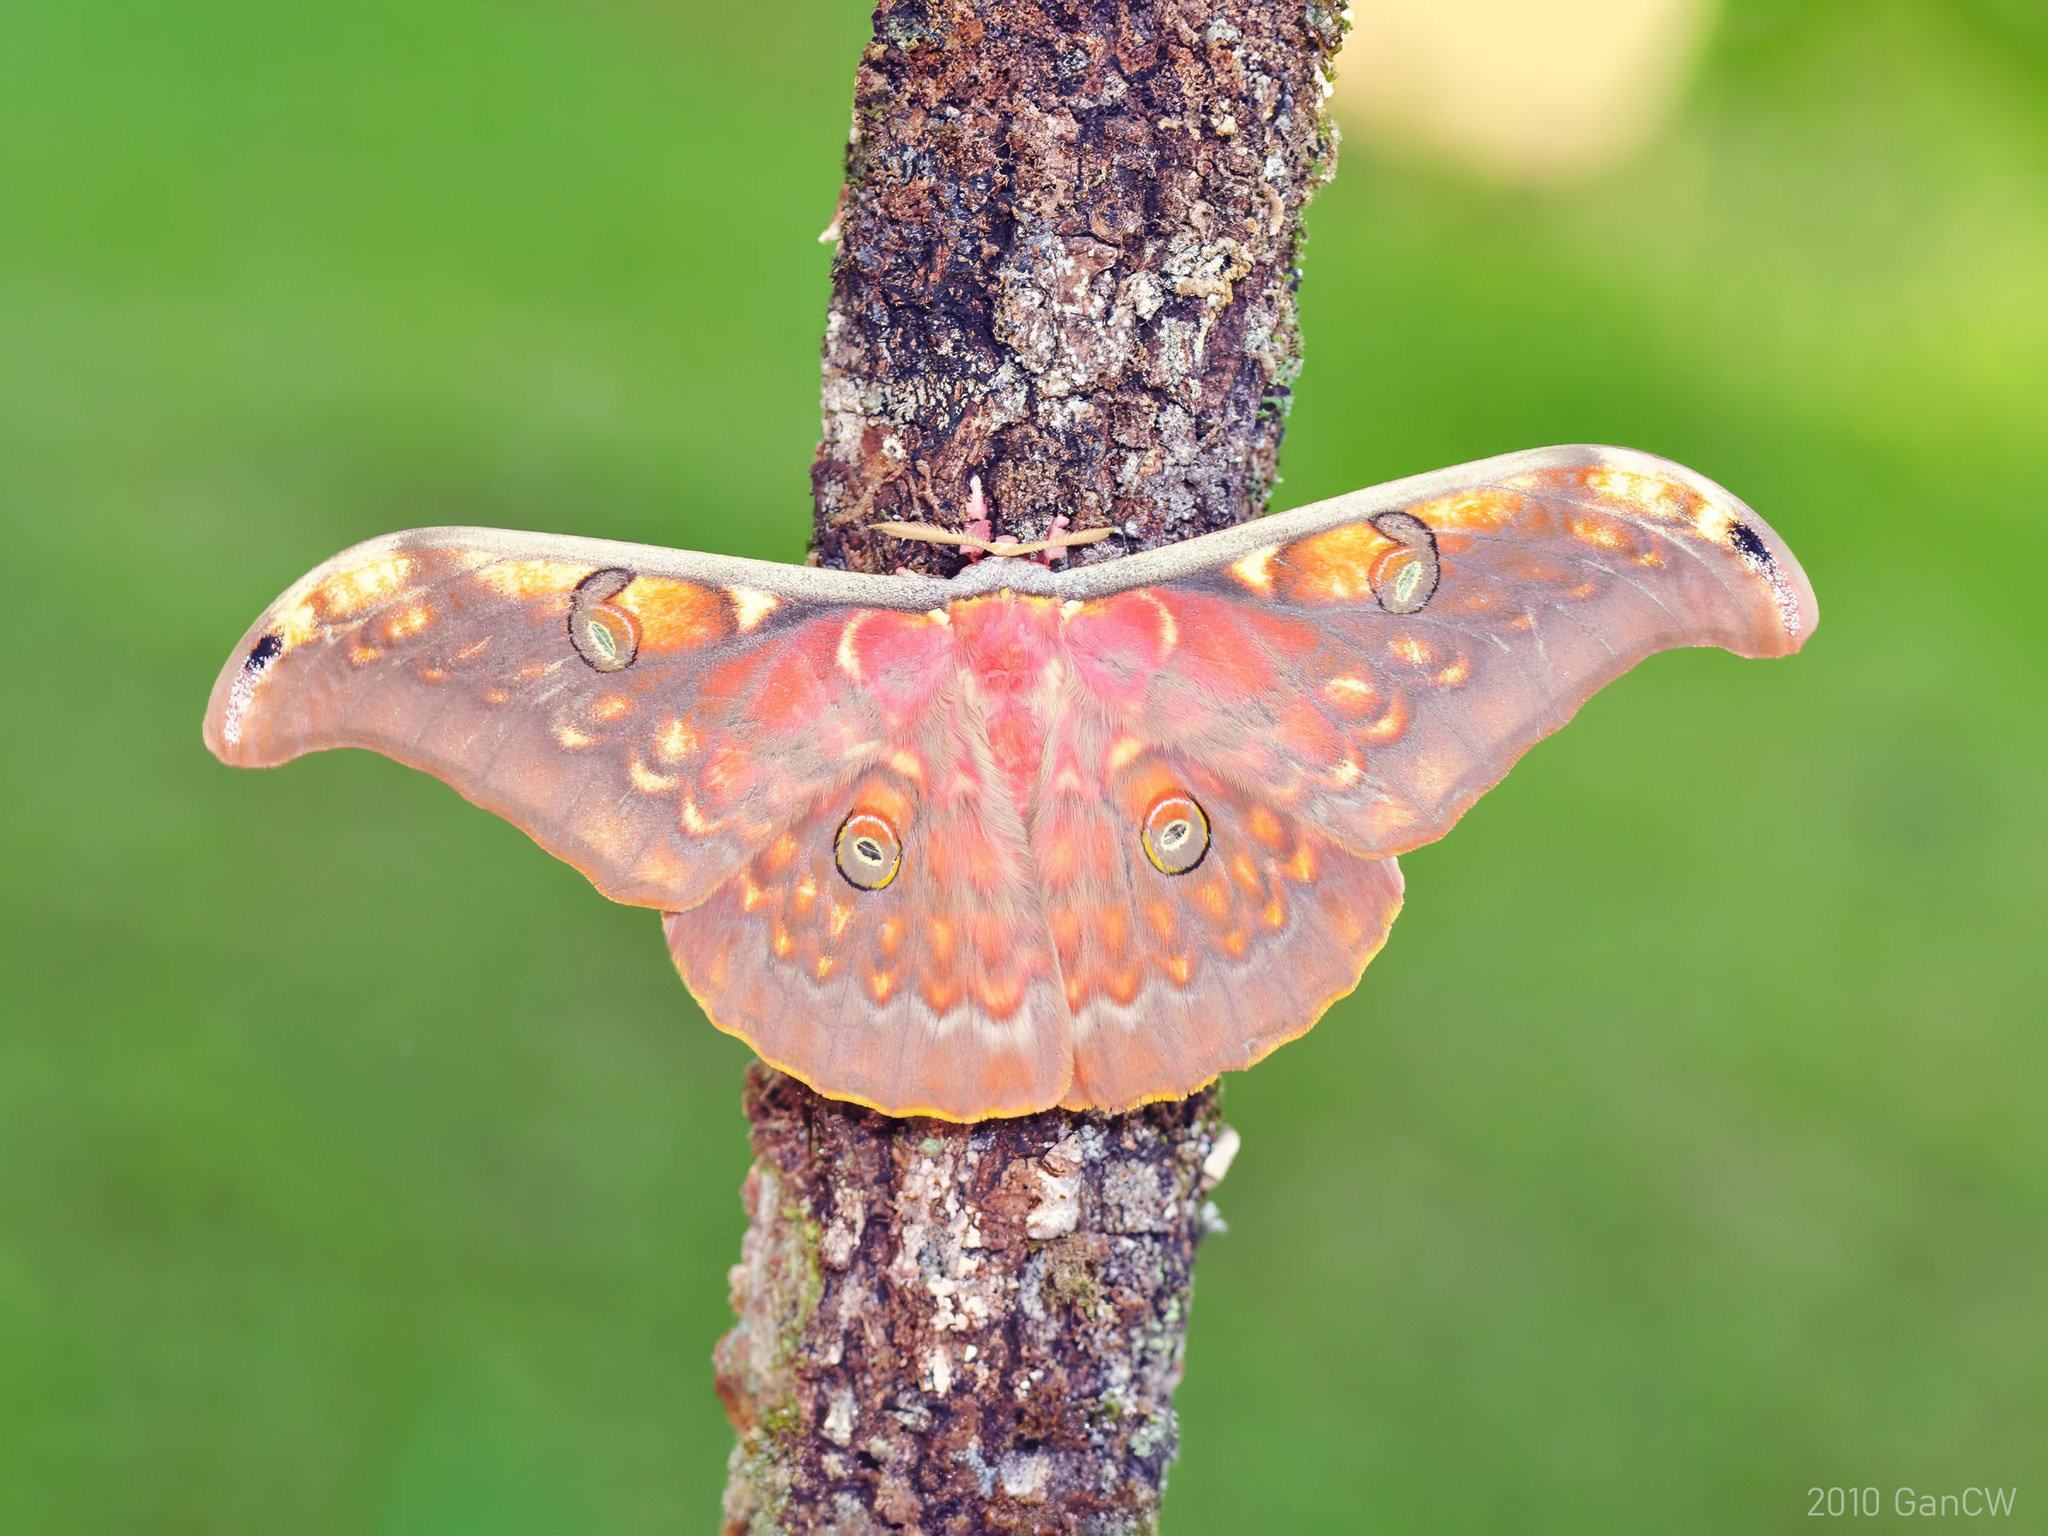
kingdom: Animalia
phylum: Arthropoda
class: Insecta
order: Lepidoptera
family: Saturniidae
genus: Antheraea
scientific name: Antheraea larissa
